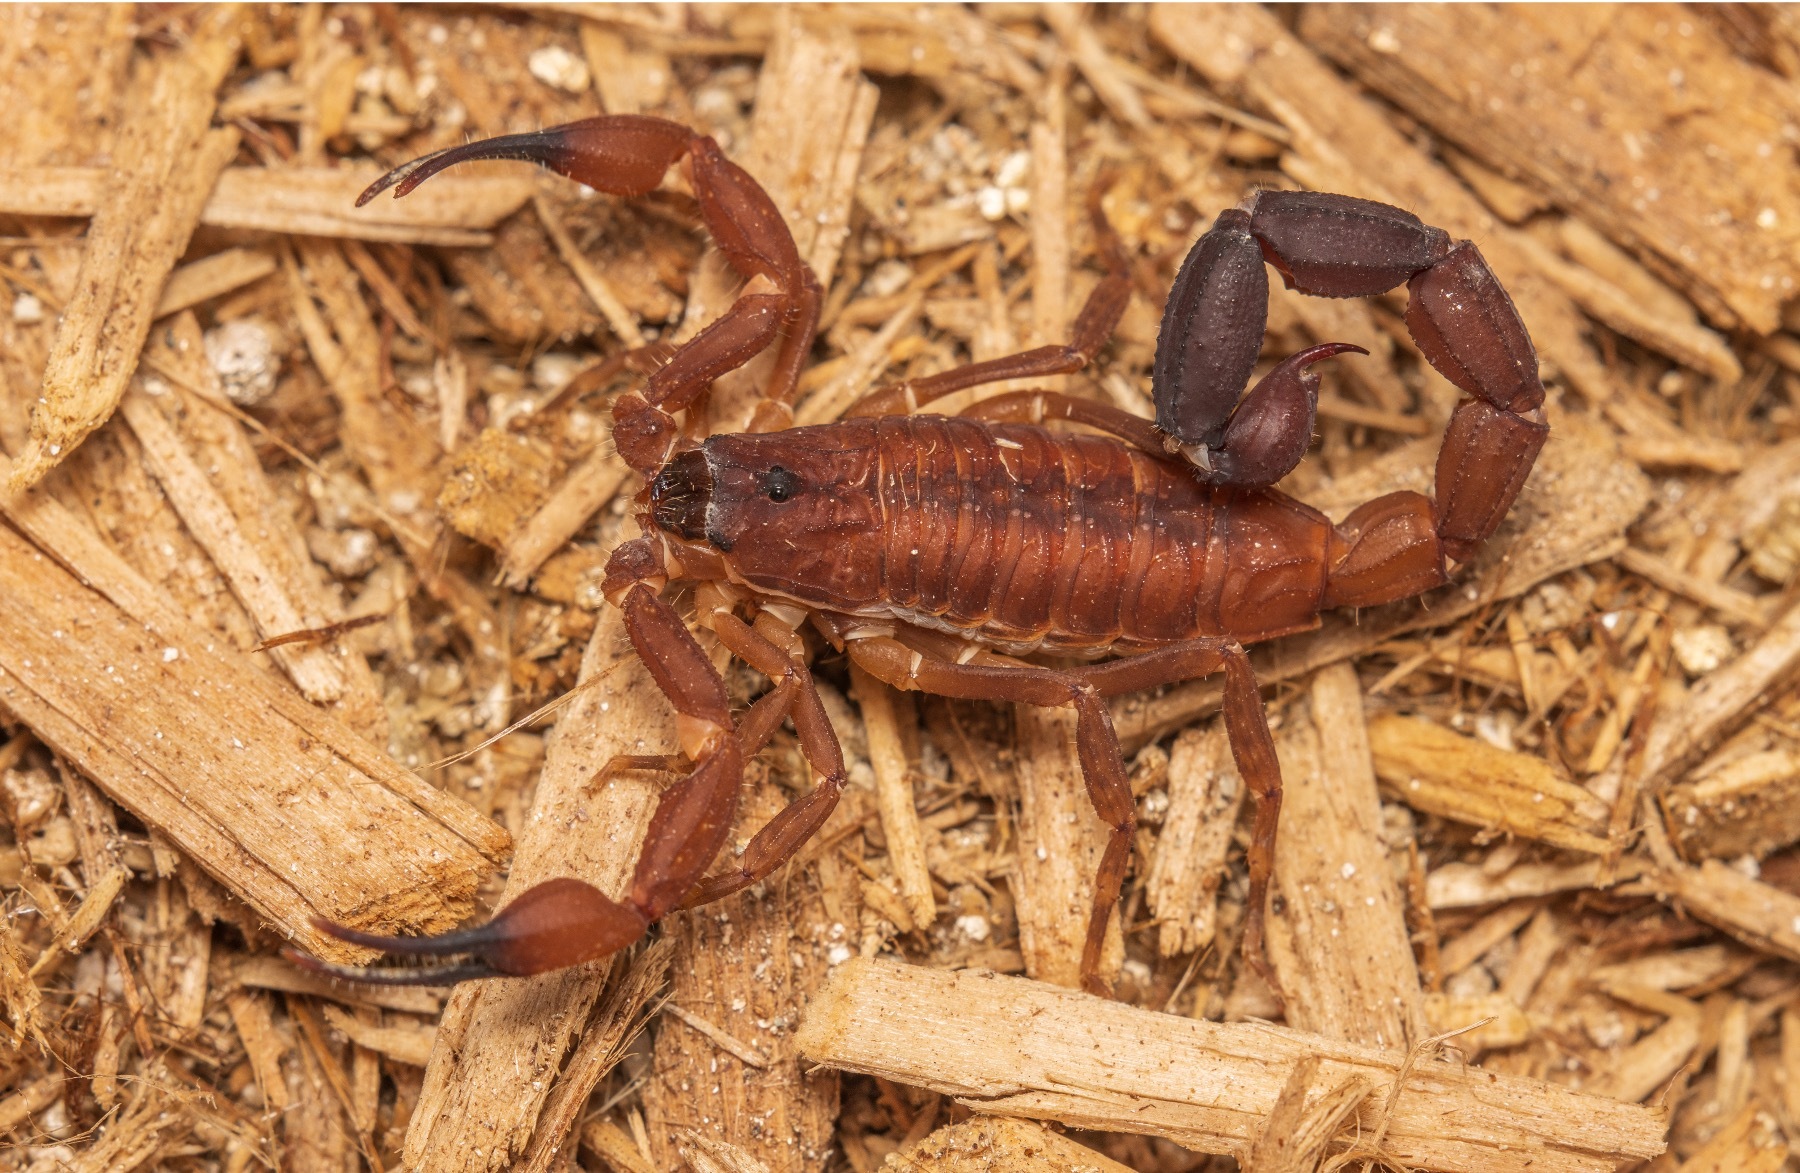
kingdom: Animalia
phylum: Arthropoda
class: Arachnida
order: Scorpiones
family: Buthidae
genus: Tityus
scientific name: Tityus cerroazul
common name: Scorpions
